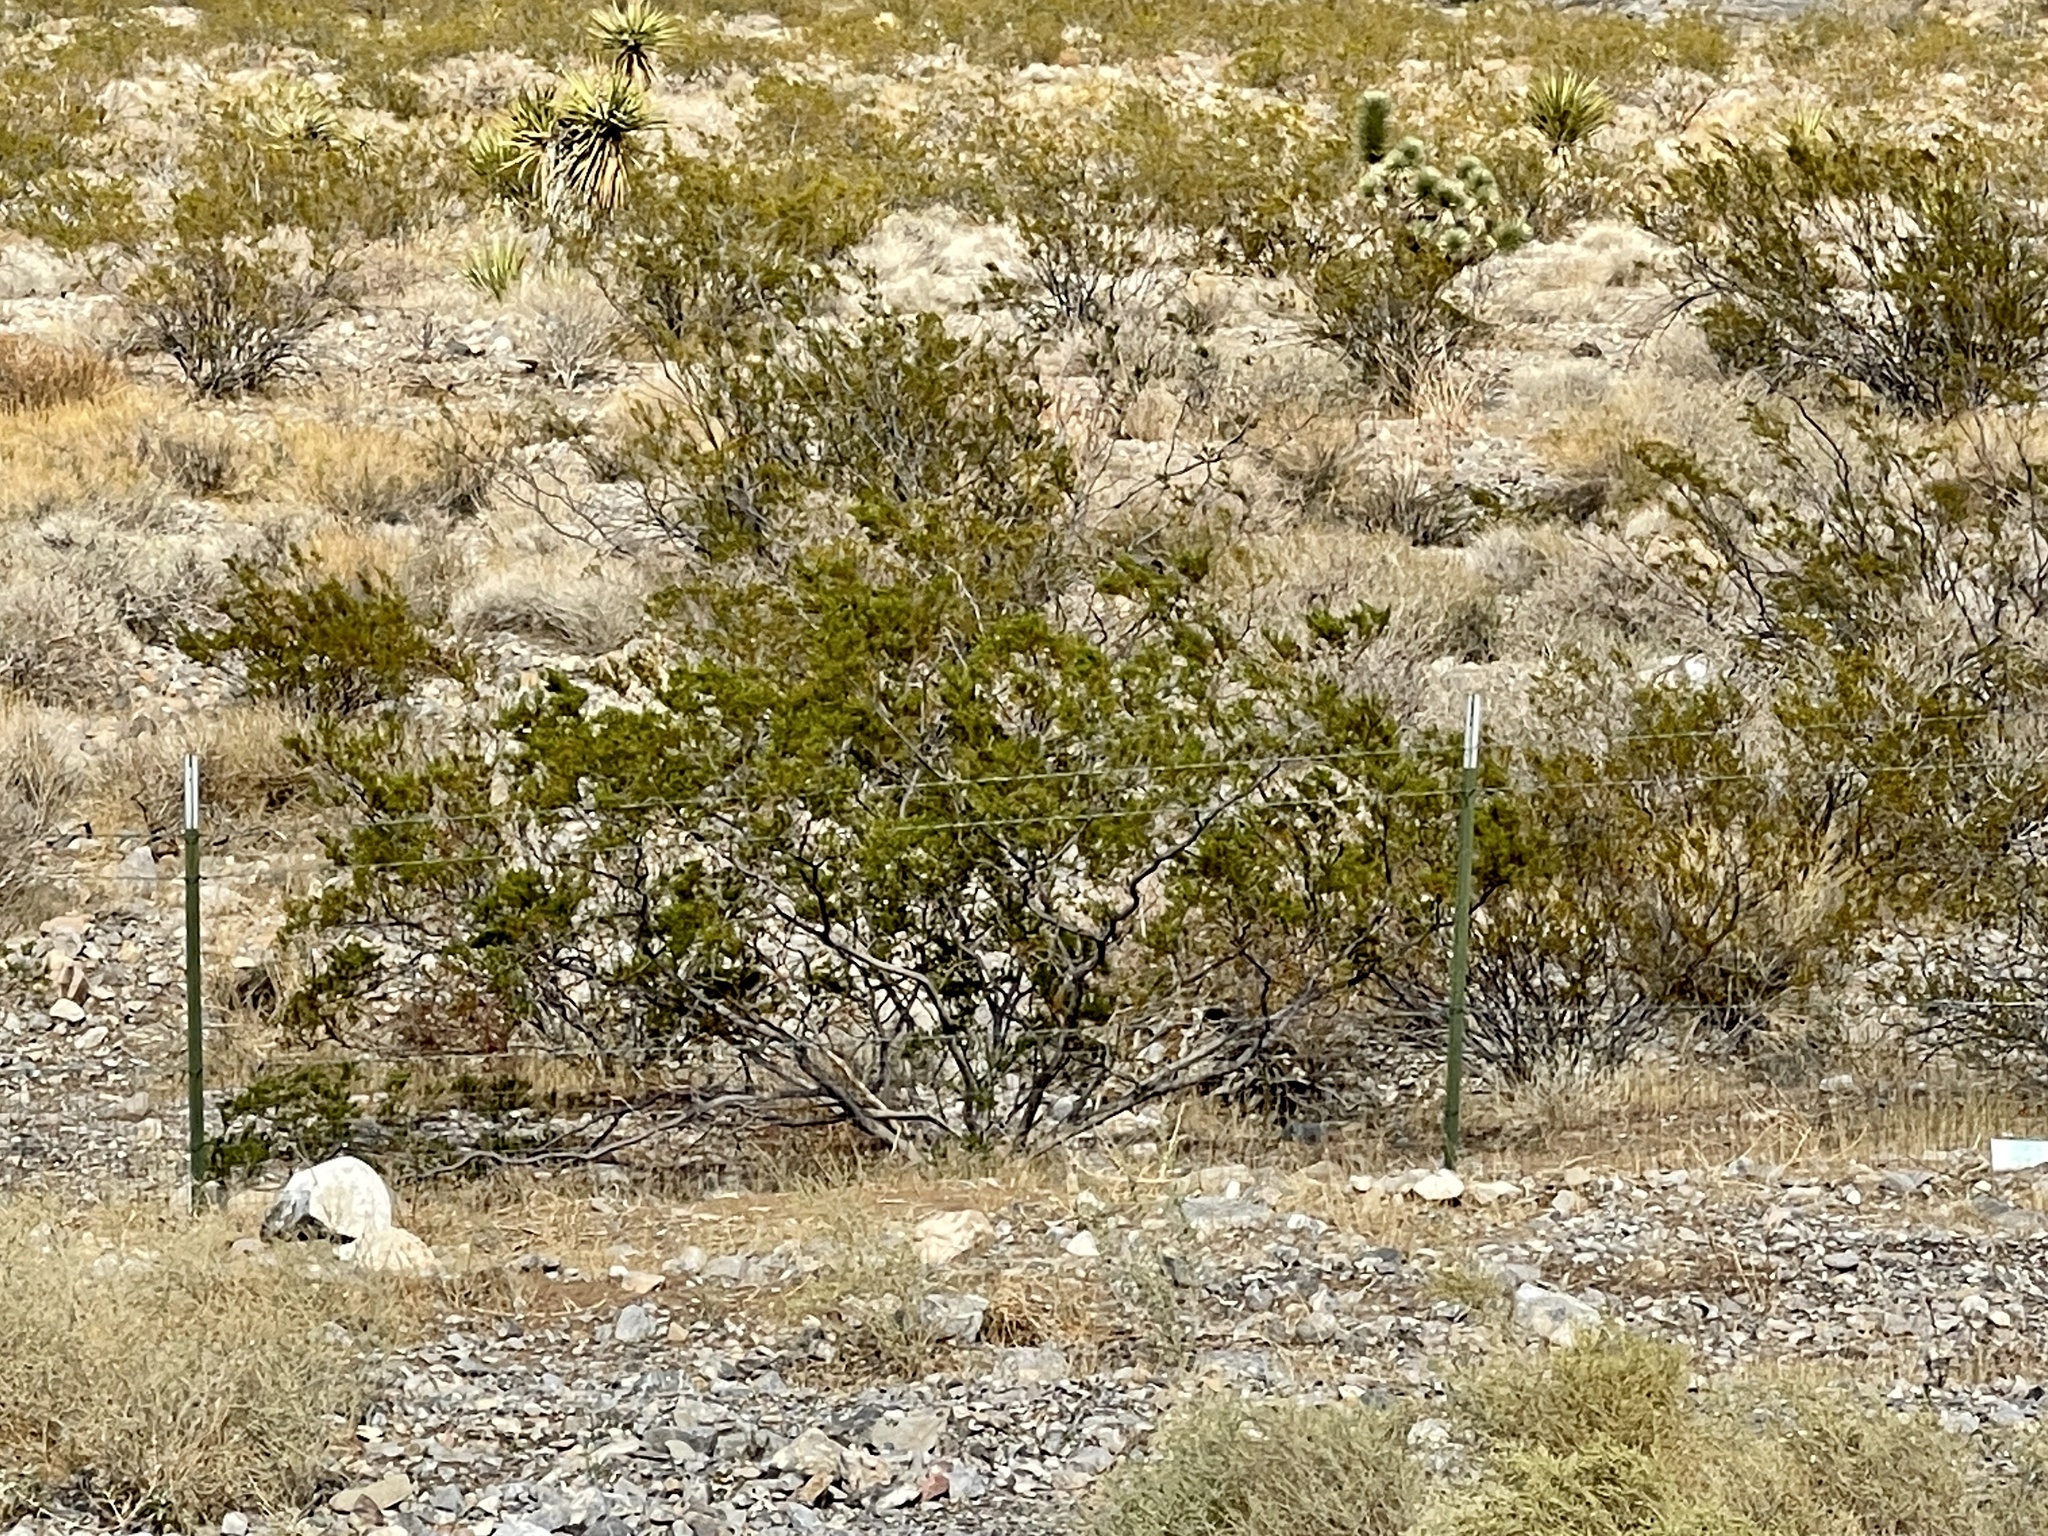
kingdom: Plantae
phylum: Tracheophyta
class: Magnoliopsida
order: Zygophyllales
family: Zygophyllaceae
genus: Larrea
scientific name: Larrea tridentata
